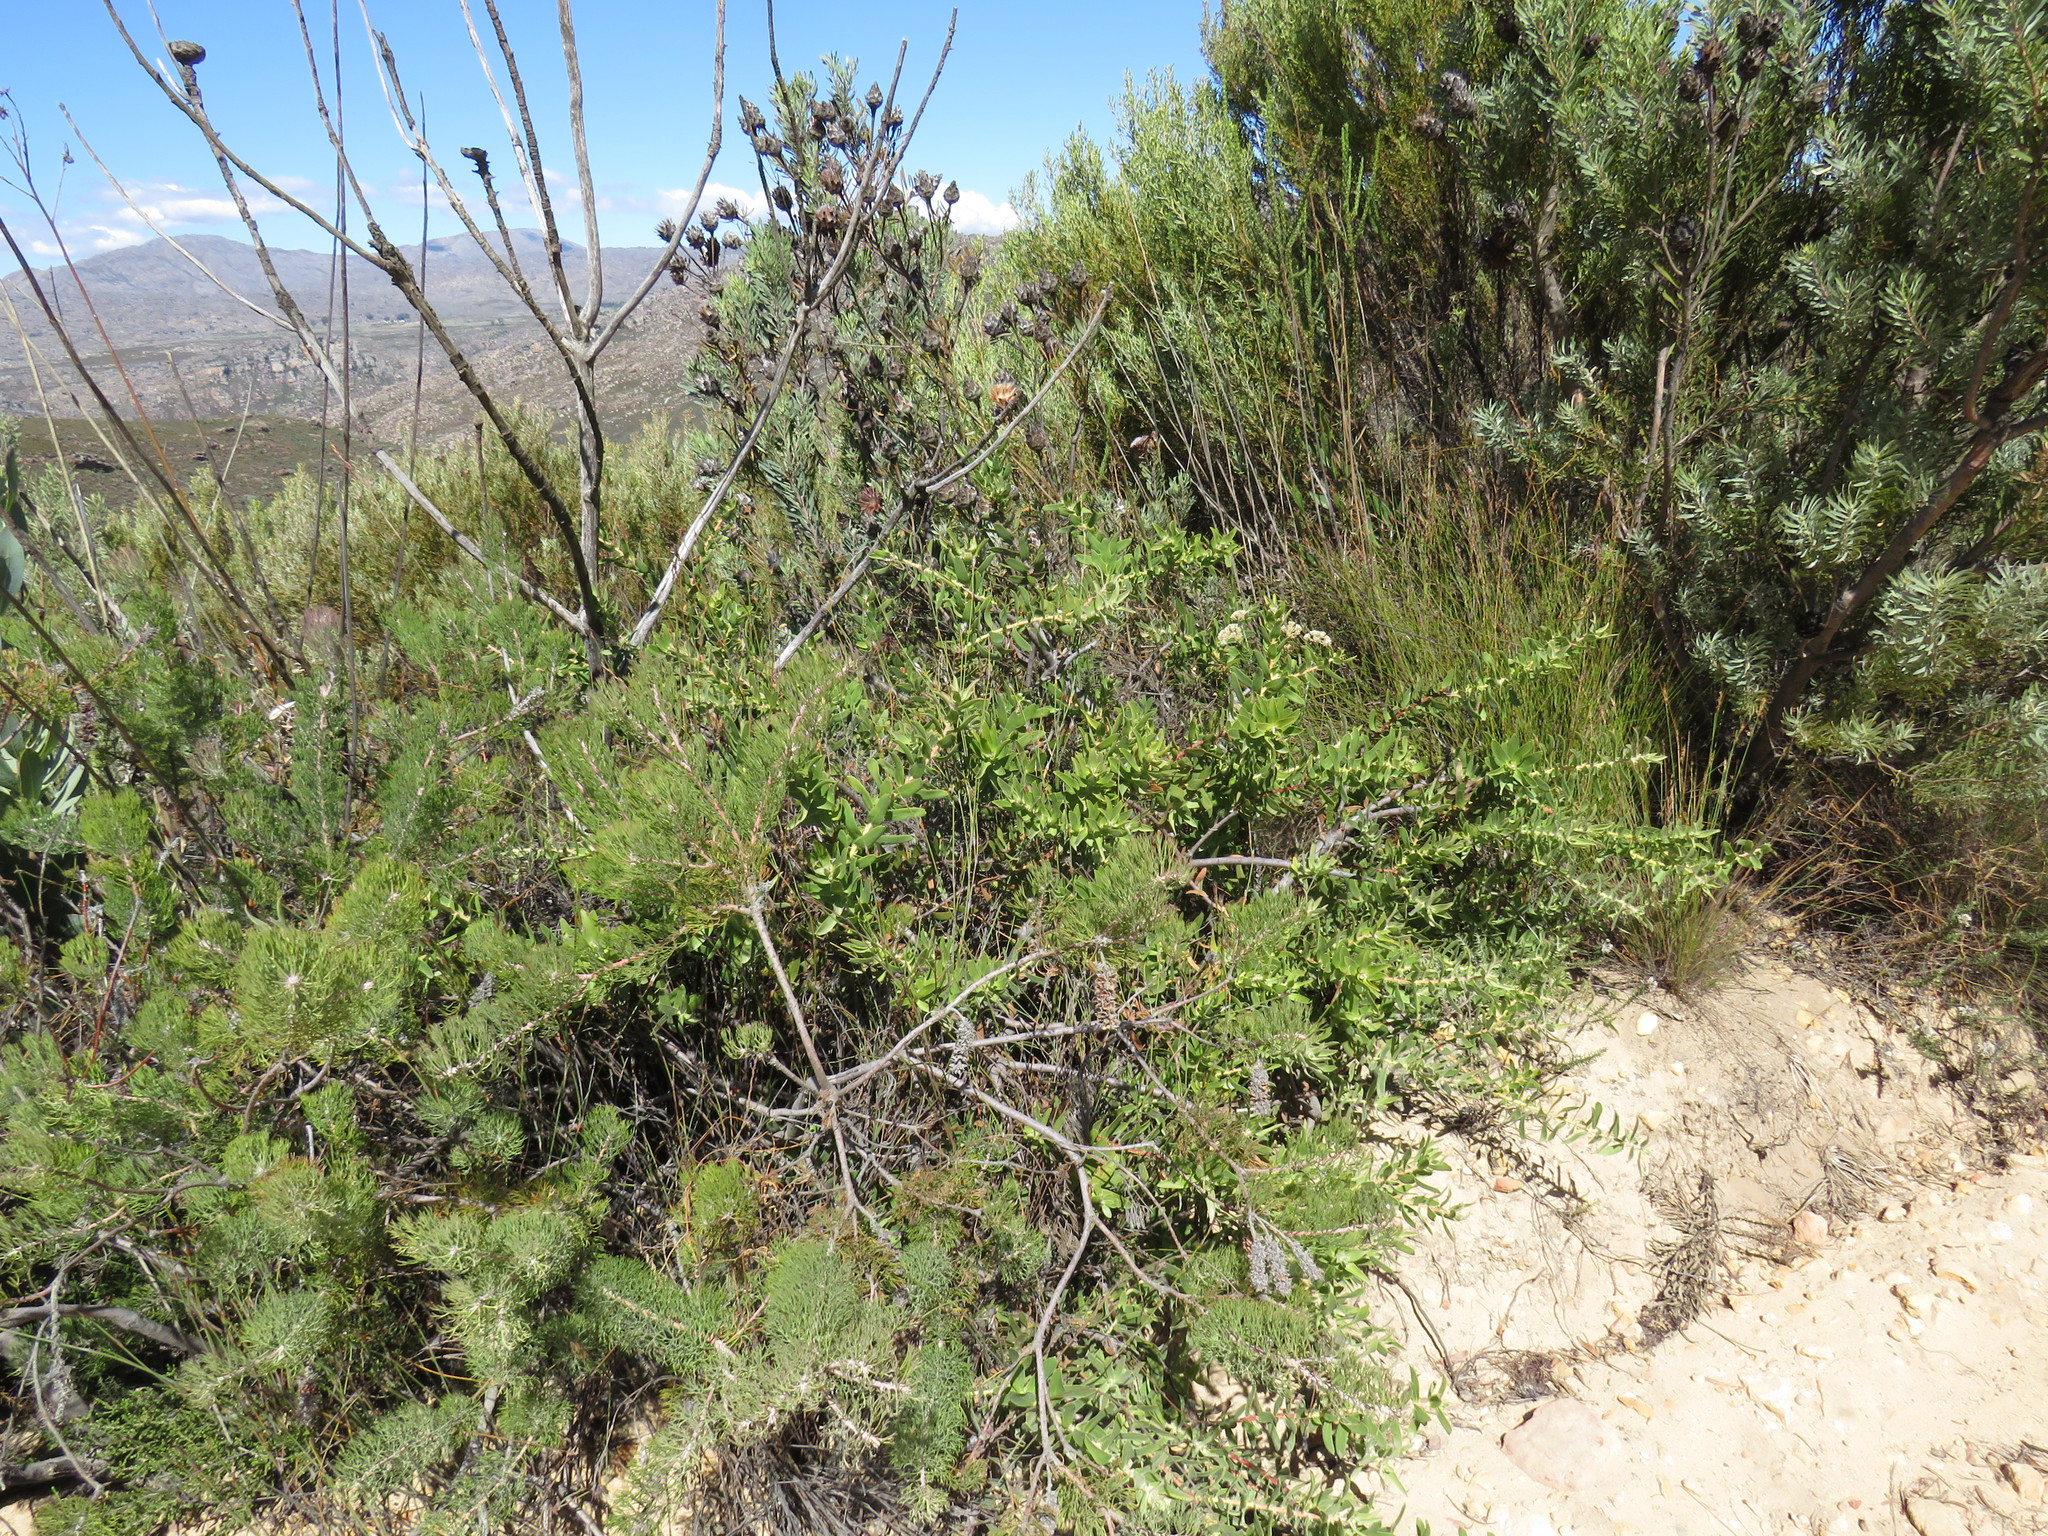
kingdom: Plantae
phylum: Tracheophyta
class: Magnoliopsida
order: Proteales
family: Proteaceae
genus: Leucospermum
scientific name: Leucospermum tottum
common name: Ribbon pincushion
